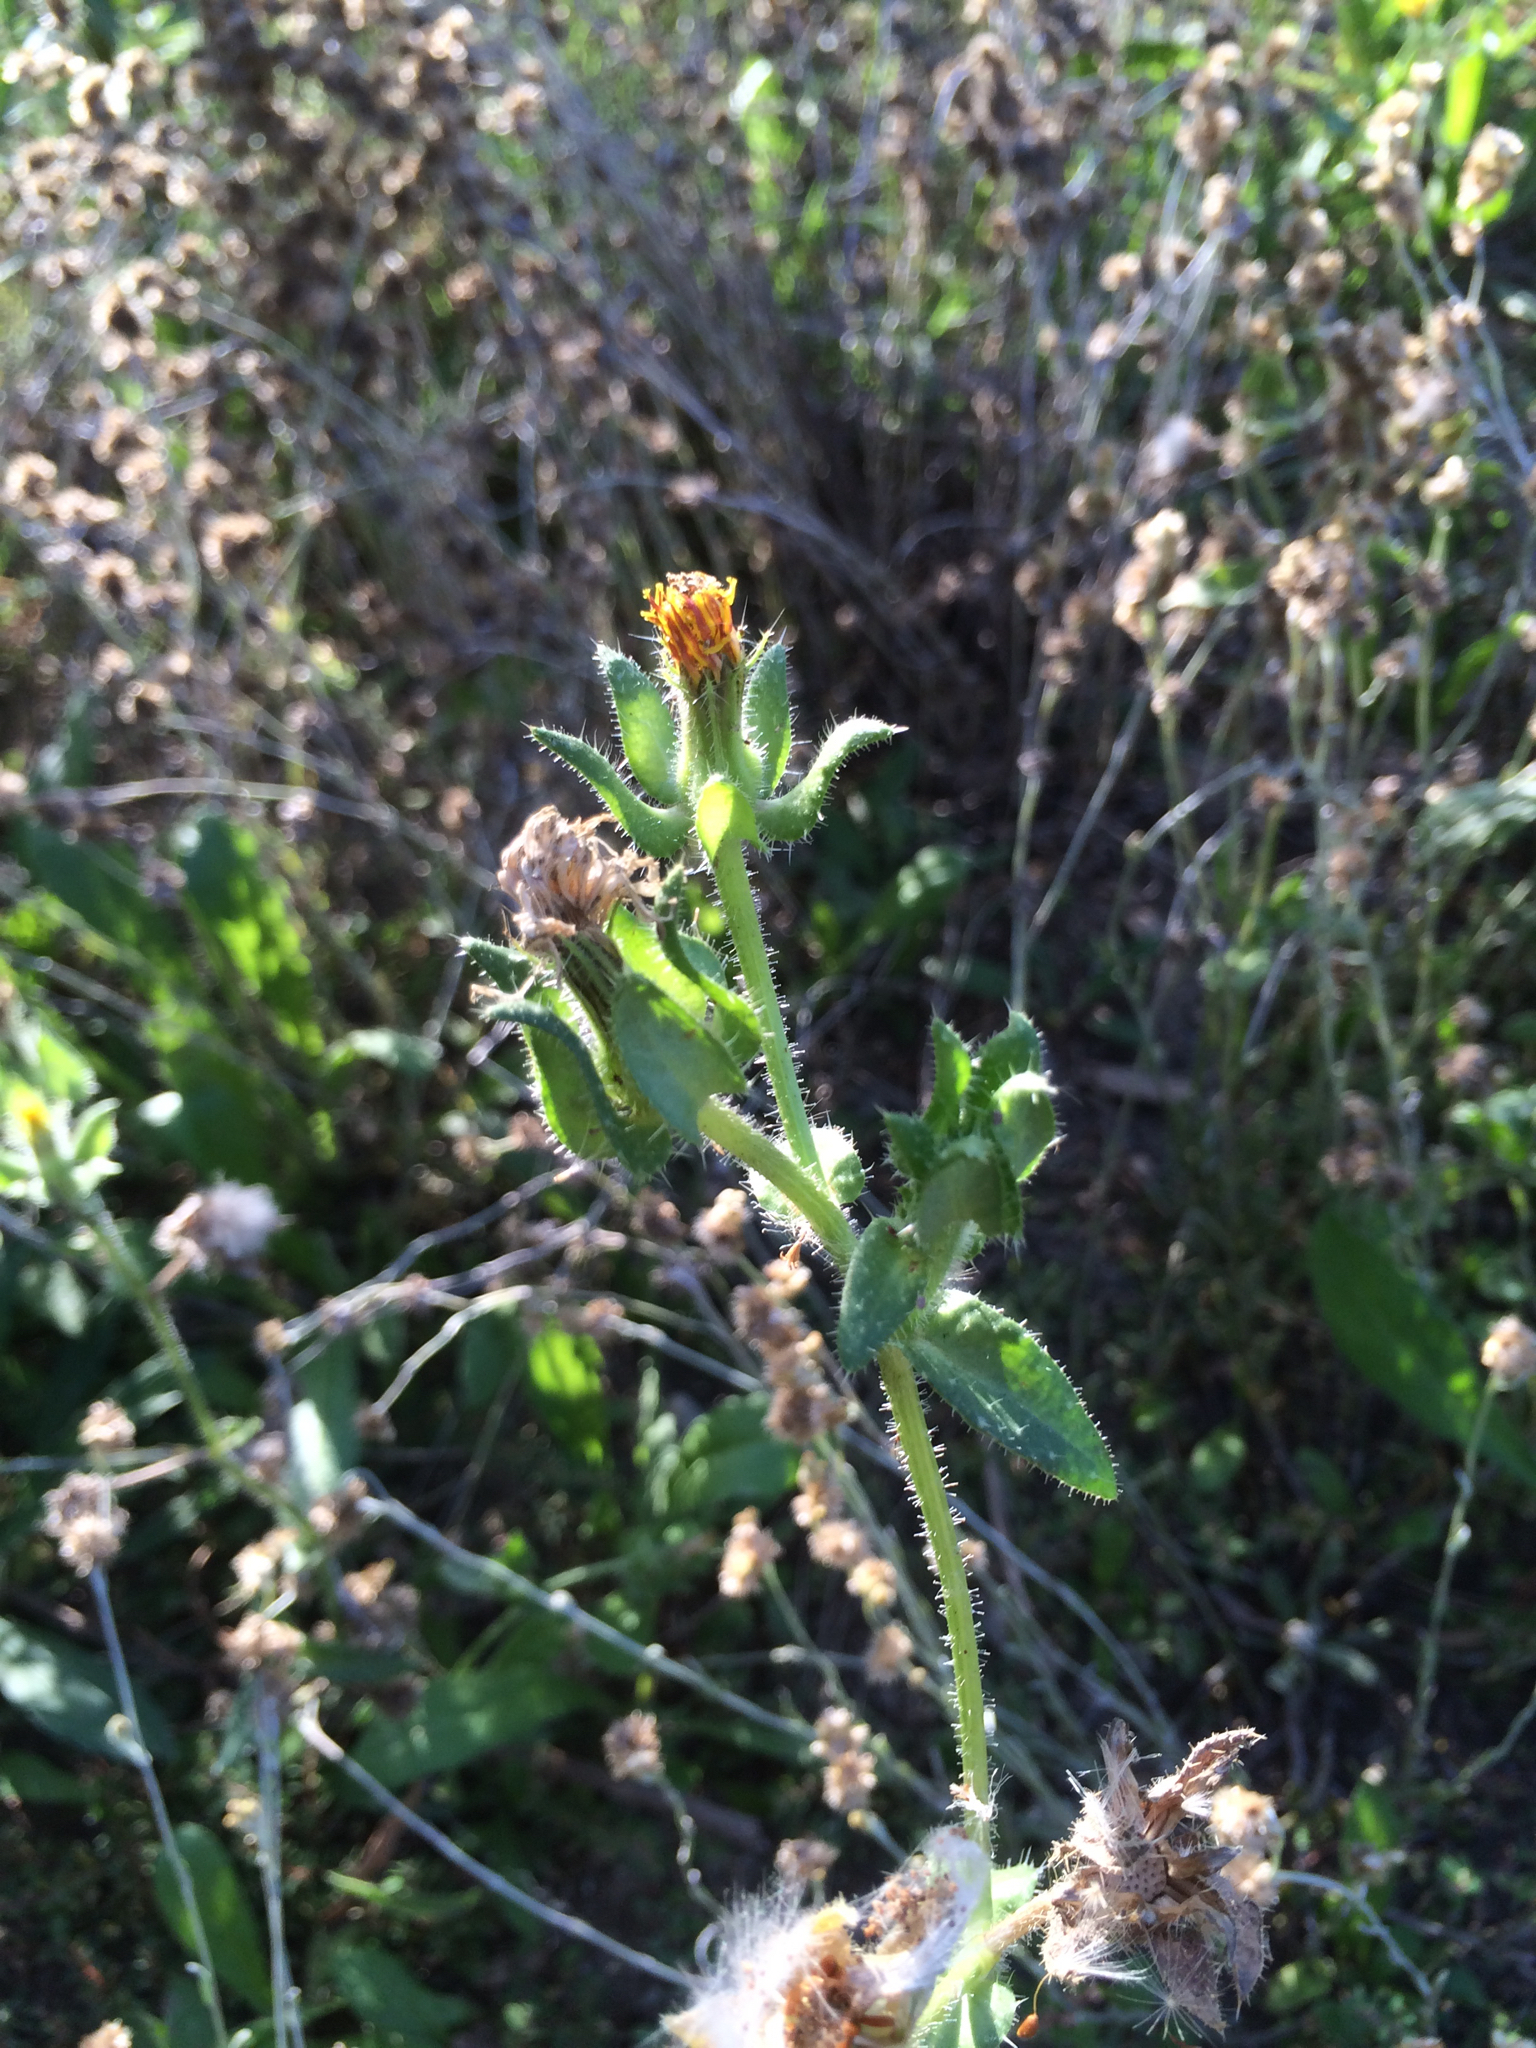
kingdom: Plantae
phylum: Tracheophyta
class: Magnoliopsida
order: Asterales
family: Asteraceae
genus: Helminthotheca
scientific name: Helminthotheca echioides
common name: Ox-tongue
